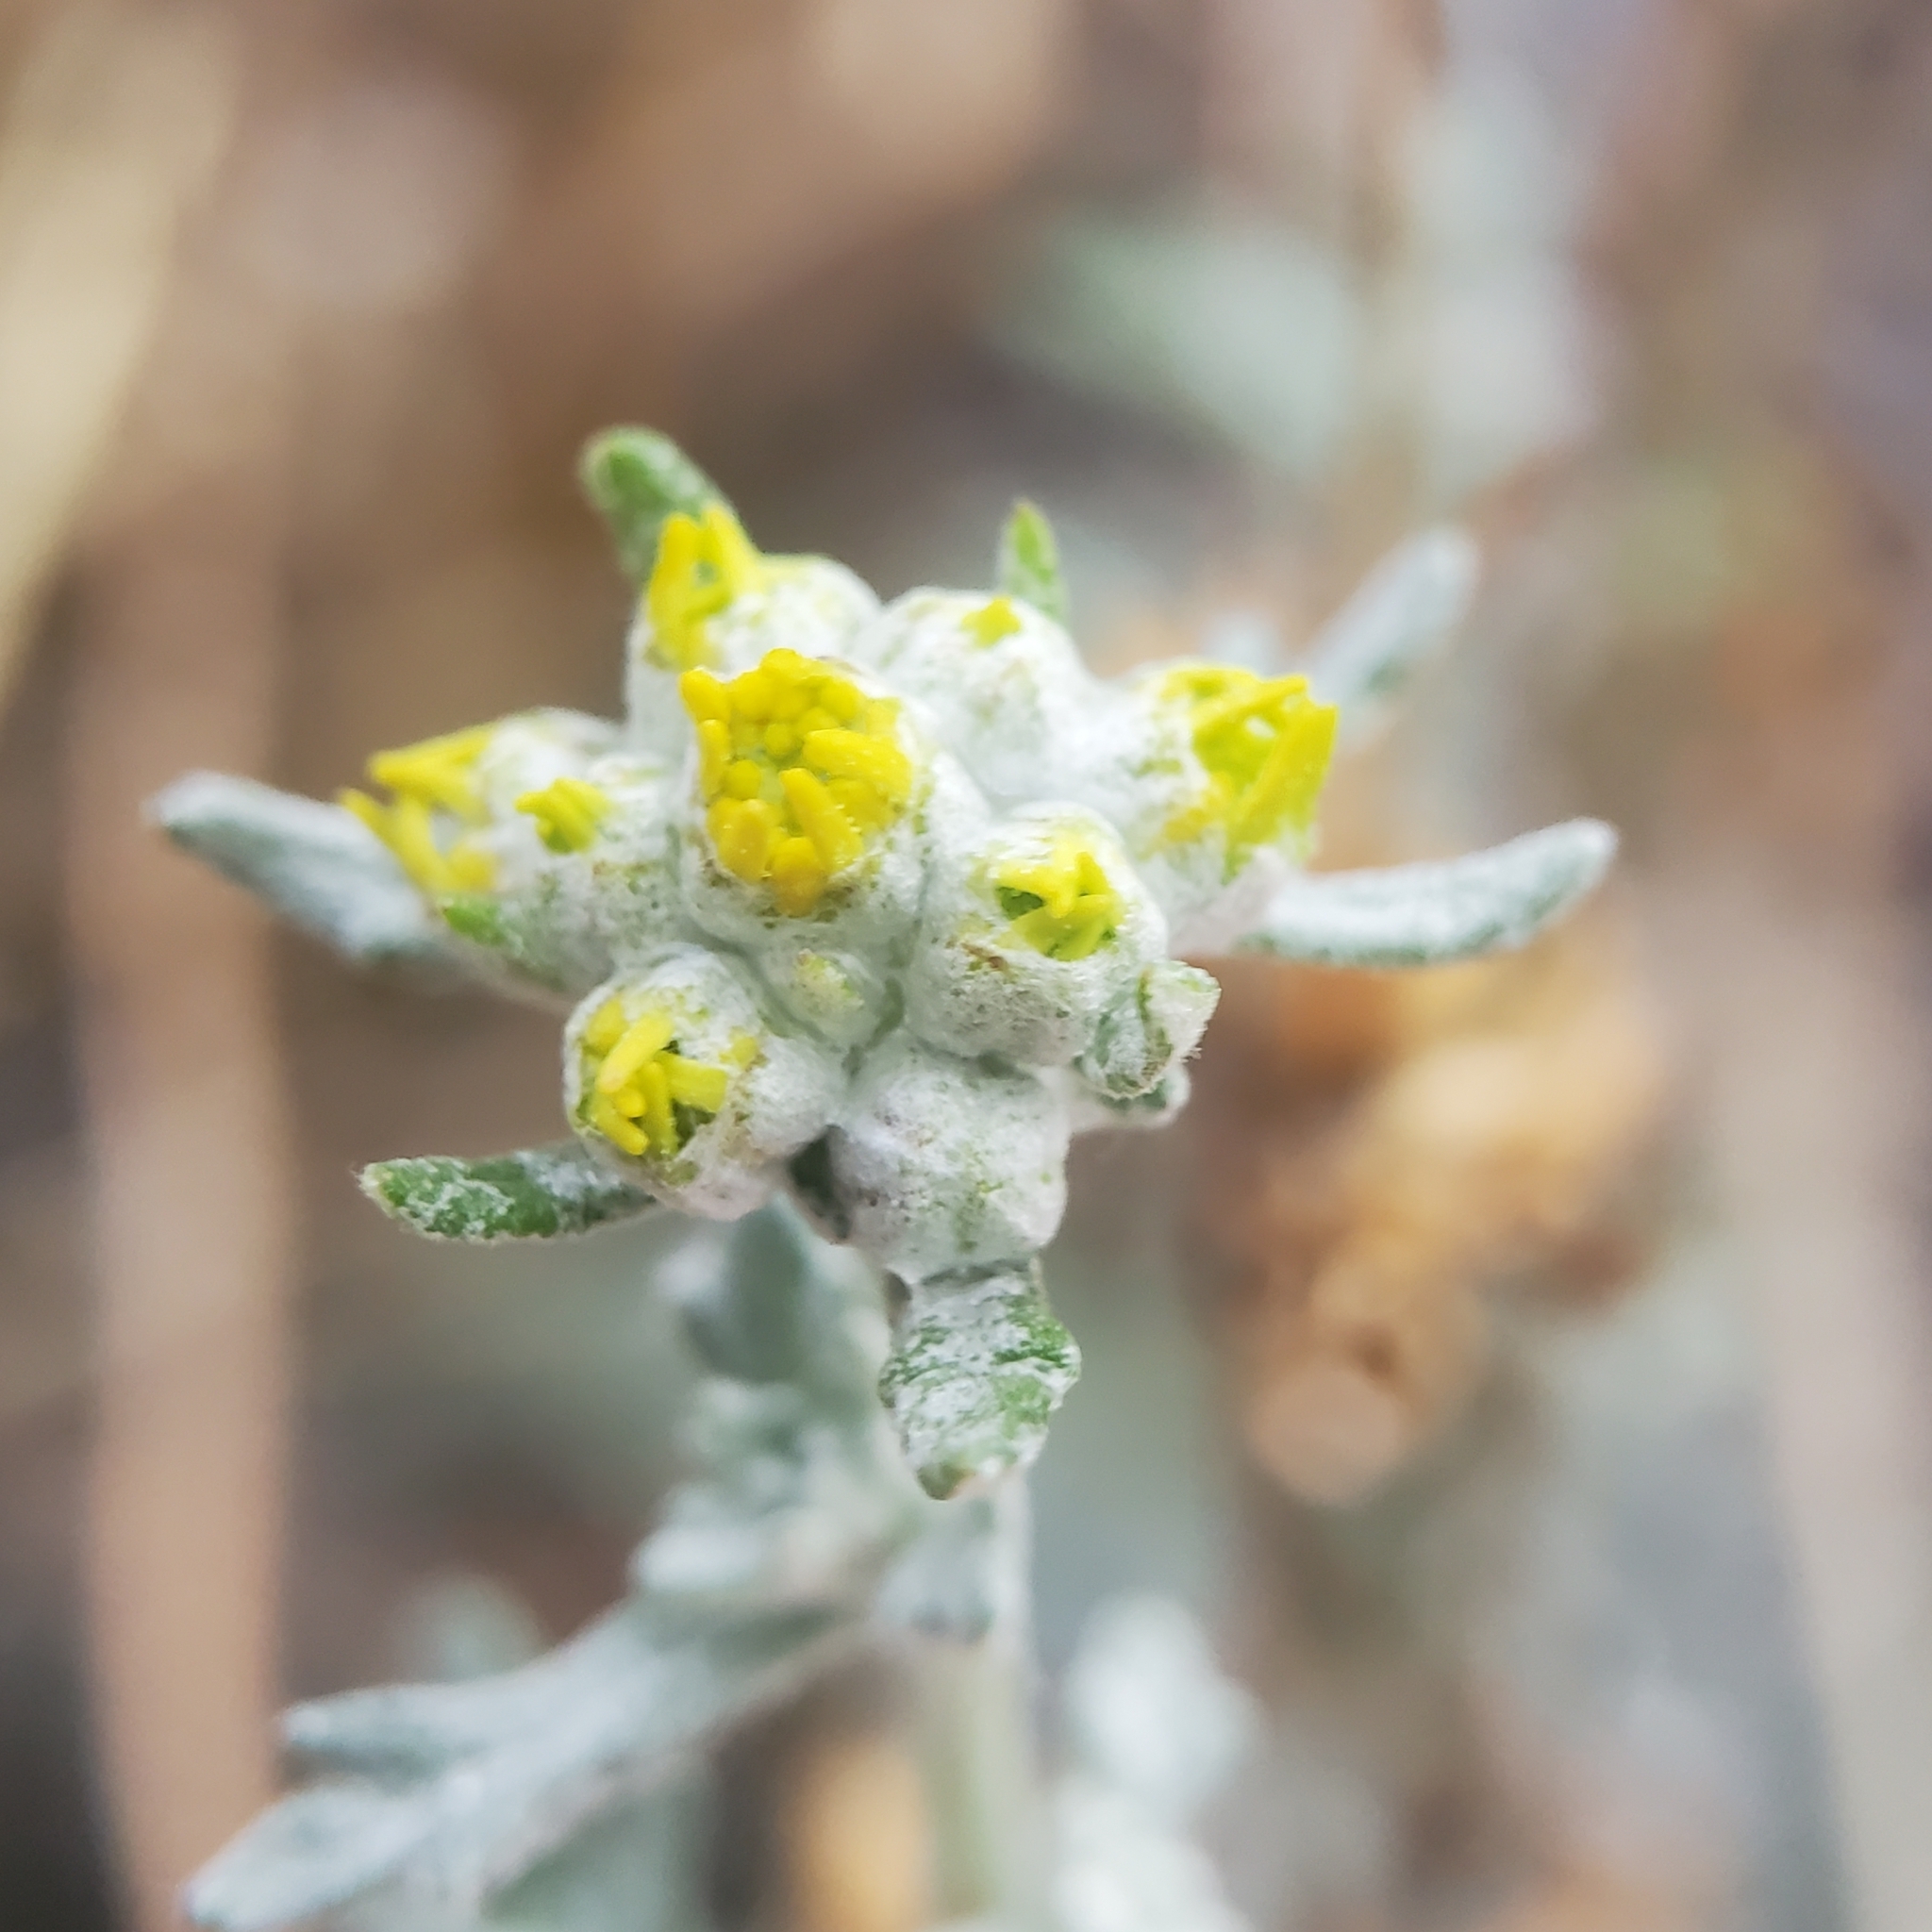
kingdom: Plantae
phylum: Tracheophyta
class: Magnoliopsida
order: Asterales
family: Asteraceae
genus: Eriophyllum
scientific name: Eriophyllum confertiflorum
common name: Golden-yarrow
